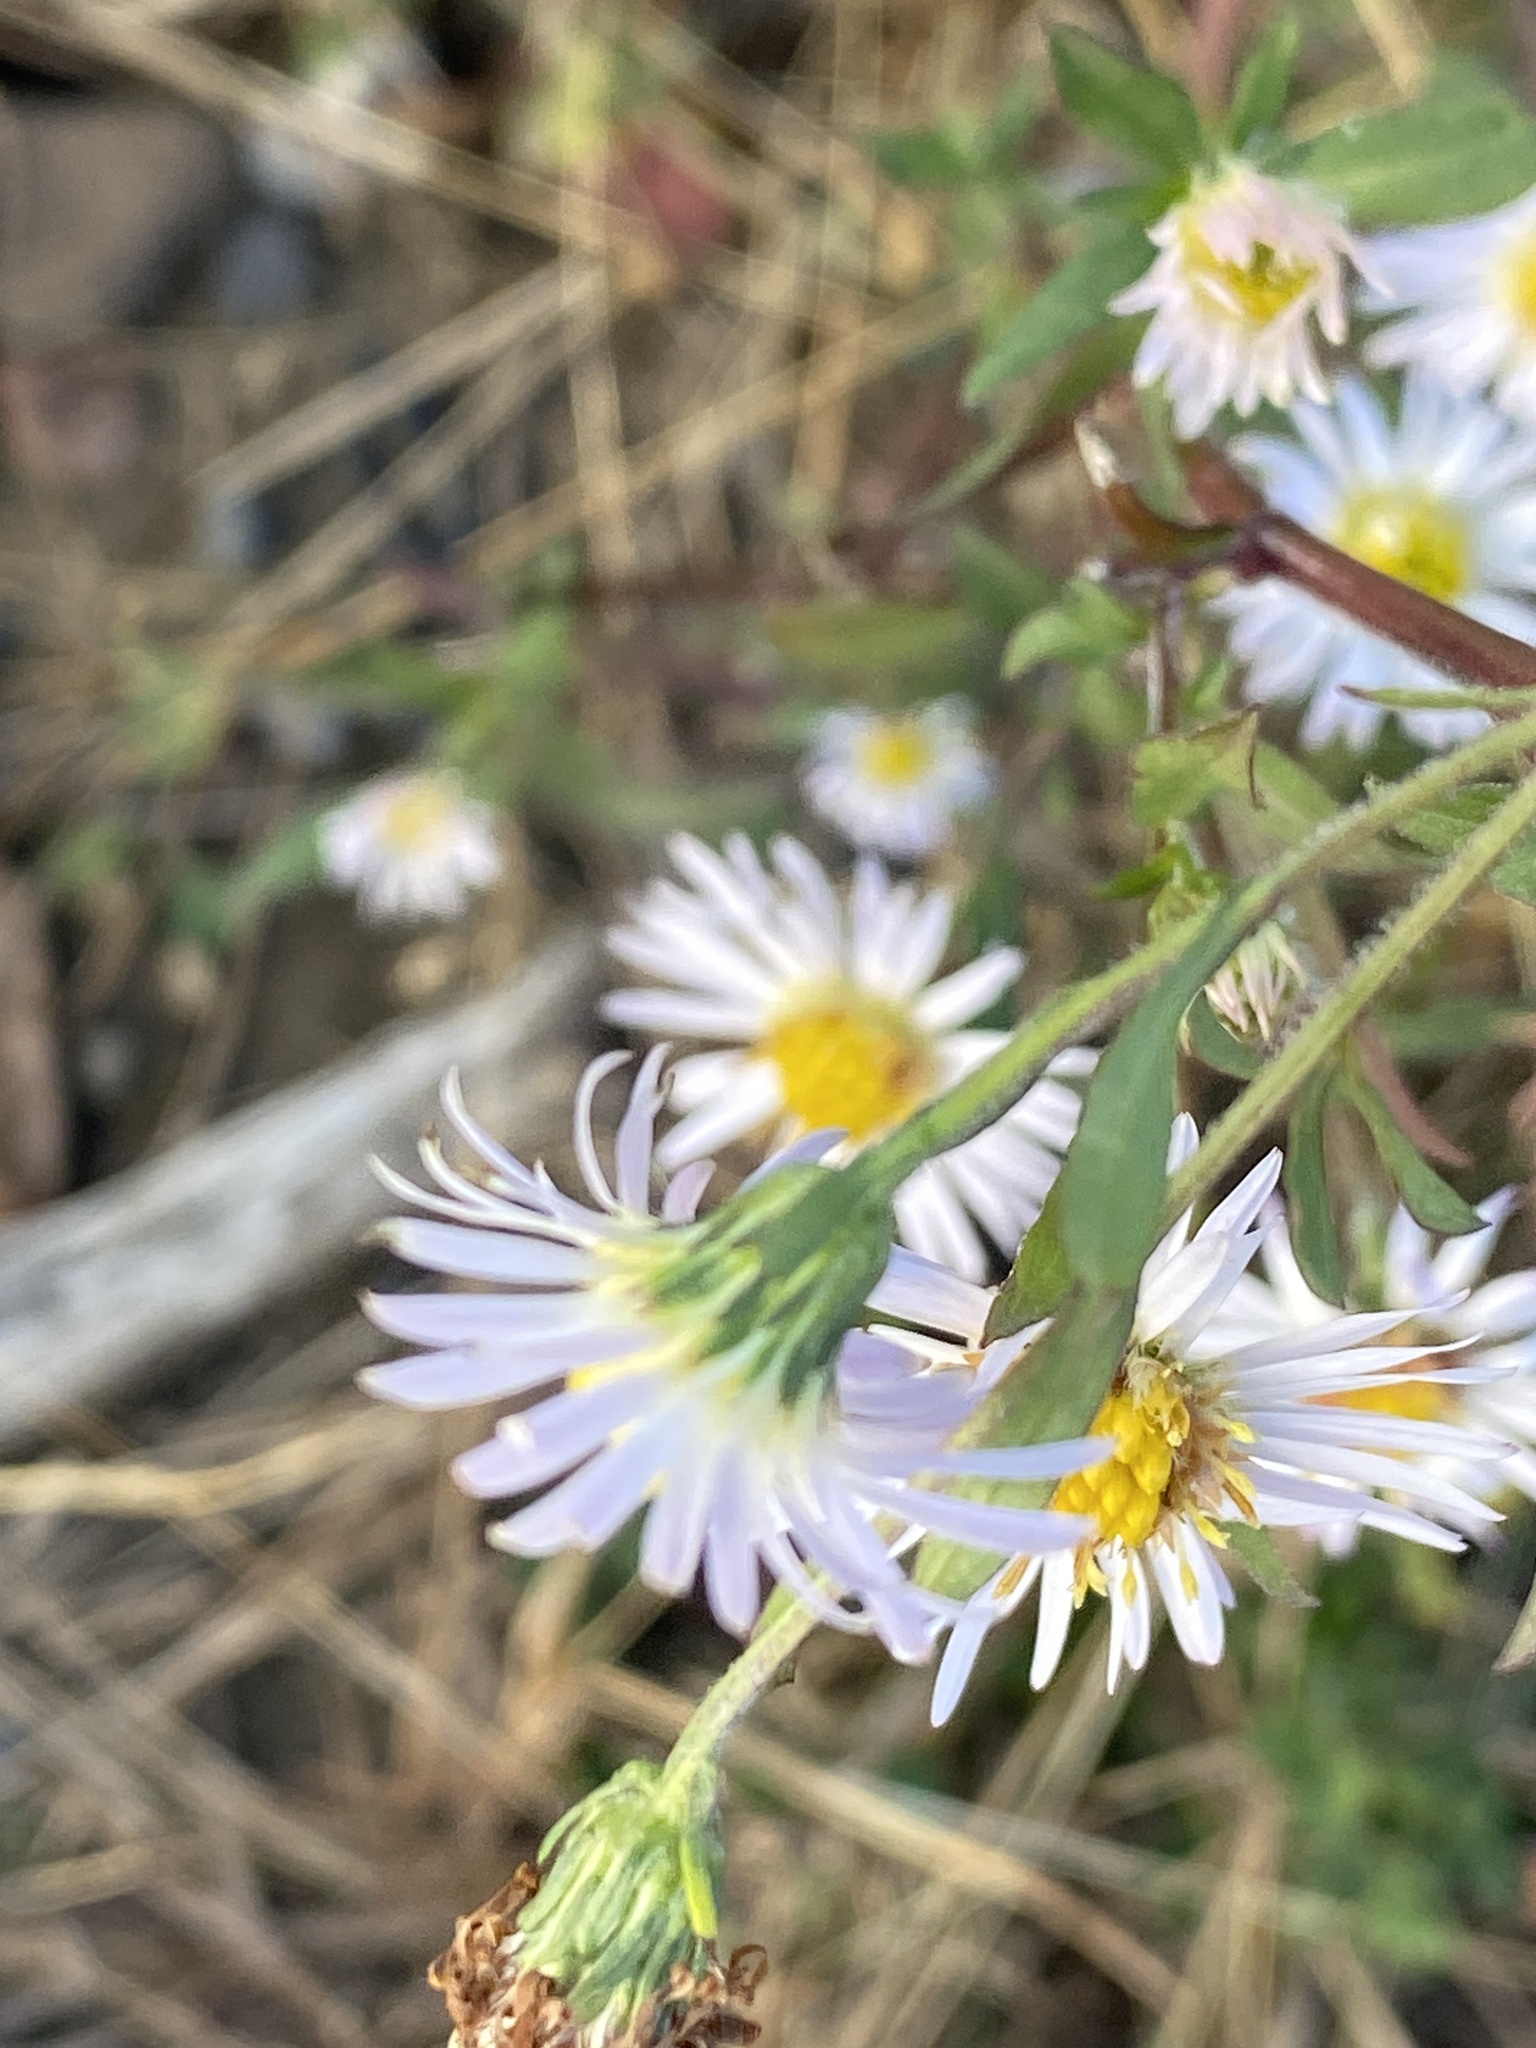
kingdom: Plantae
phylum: Tracheophyta
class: Magnoliopsida
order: Asterales
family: Asteraceae
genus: Symphyotrichum
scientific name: Symphyotrichum lanceolatum
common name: Panicled aster
